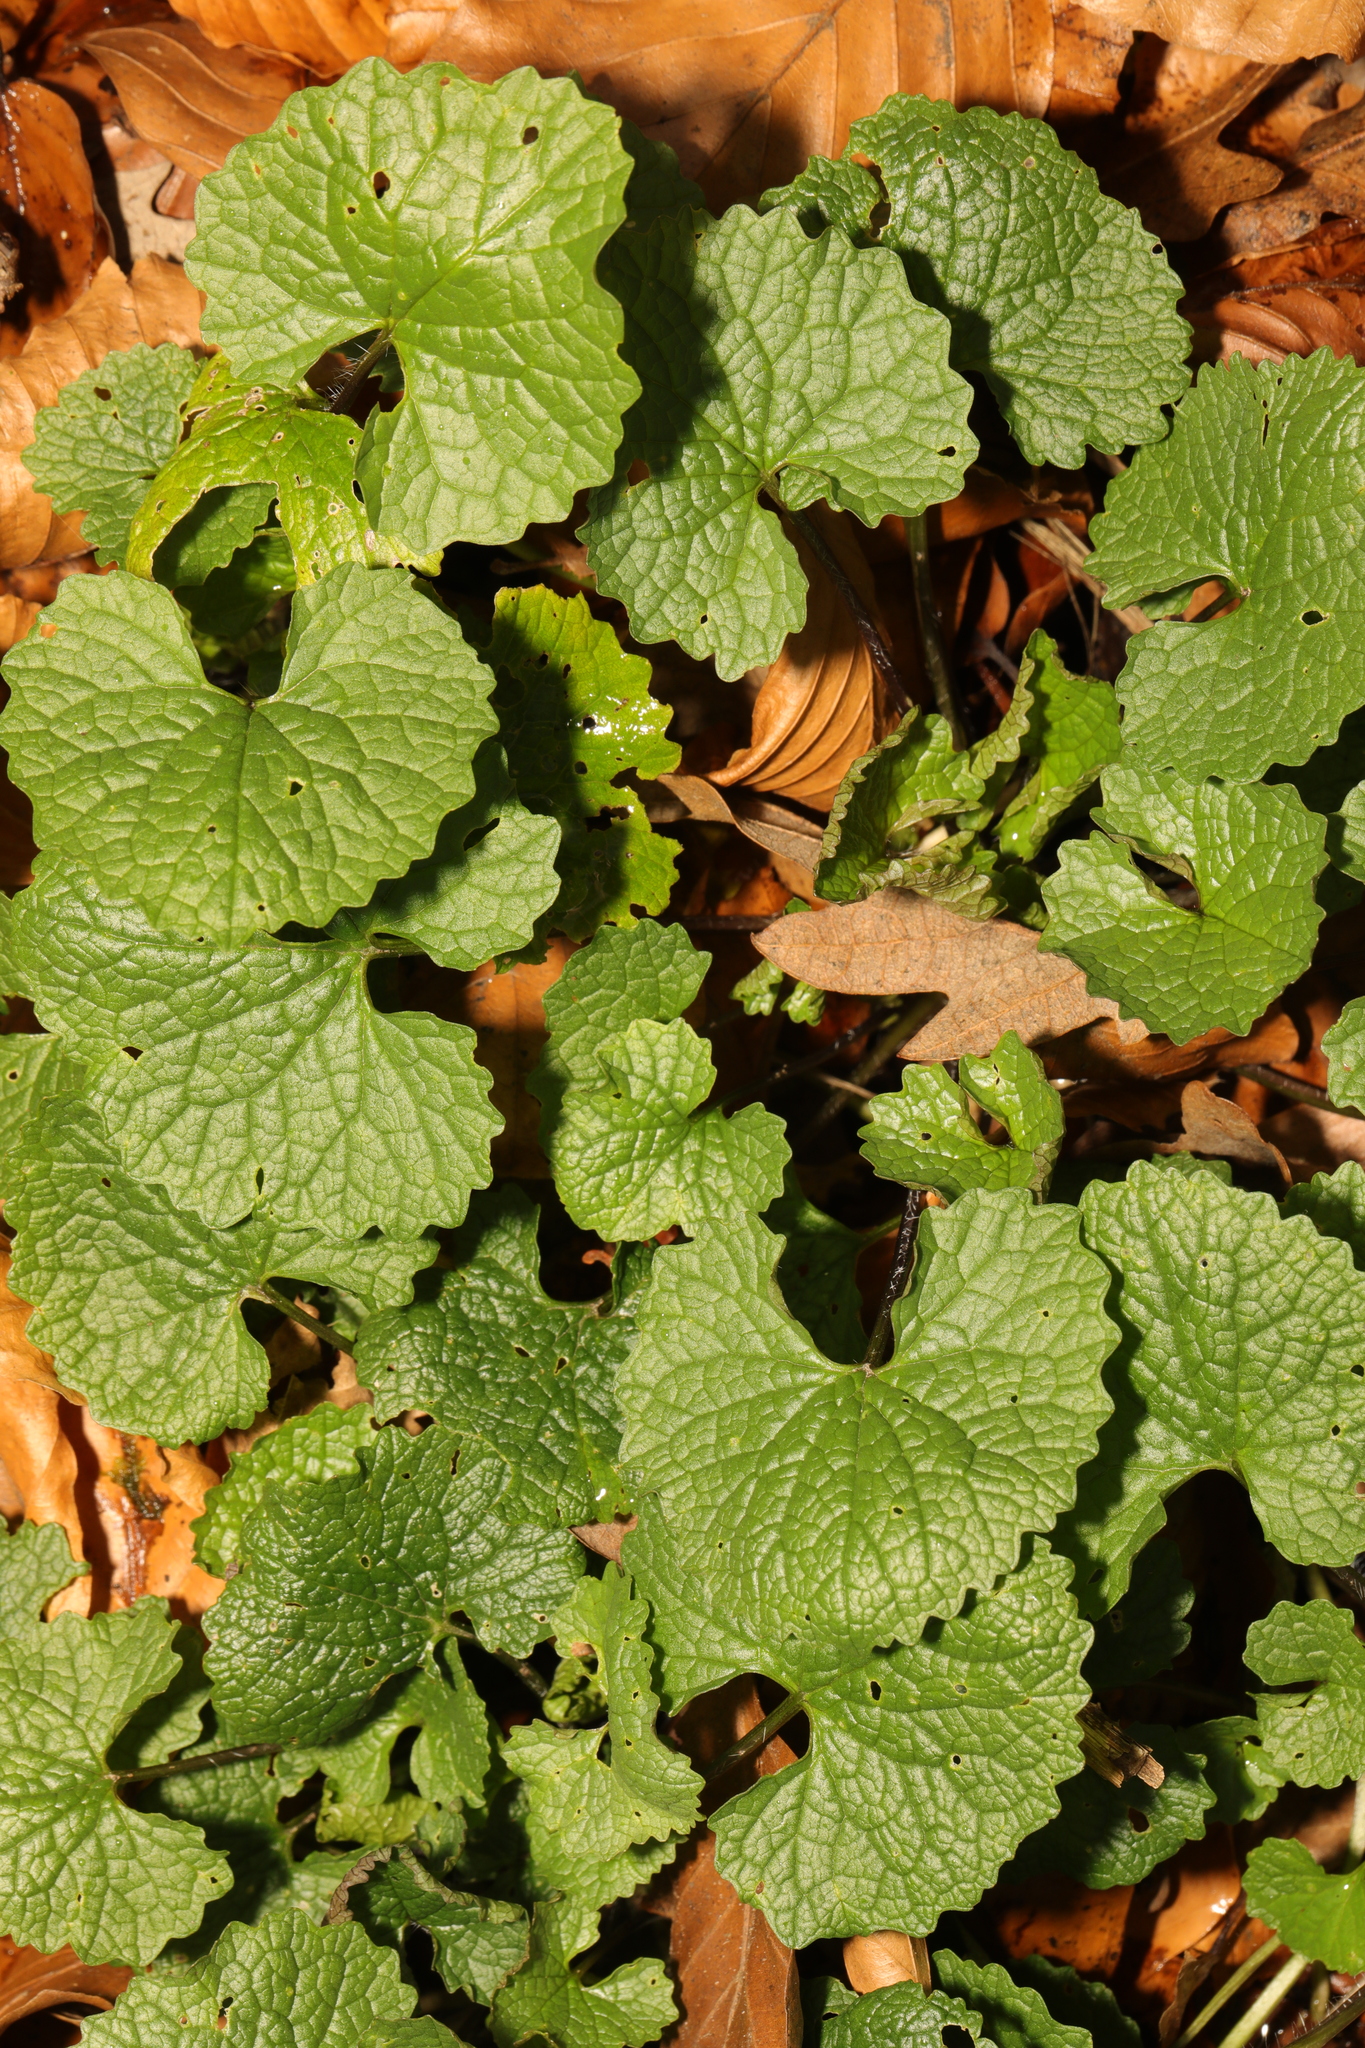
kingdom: Plantae
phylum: Tracheophyta
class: Magnoliopsida
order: Brassicales
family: Brassicaceae
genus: Alliaria
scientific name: Alliaria petiolata
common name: Garlic mustard
